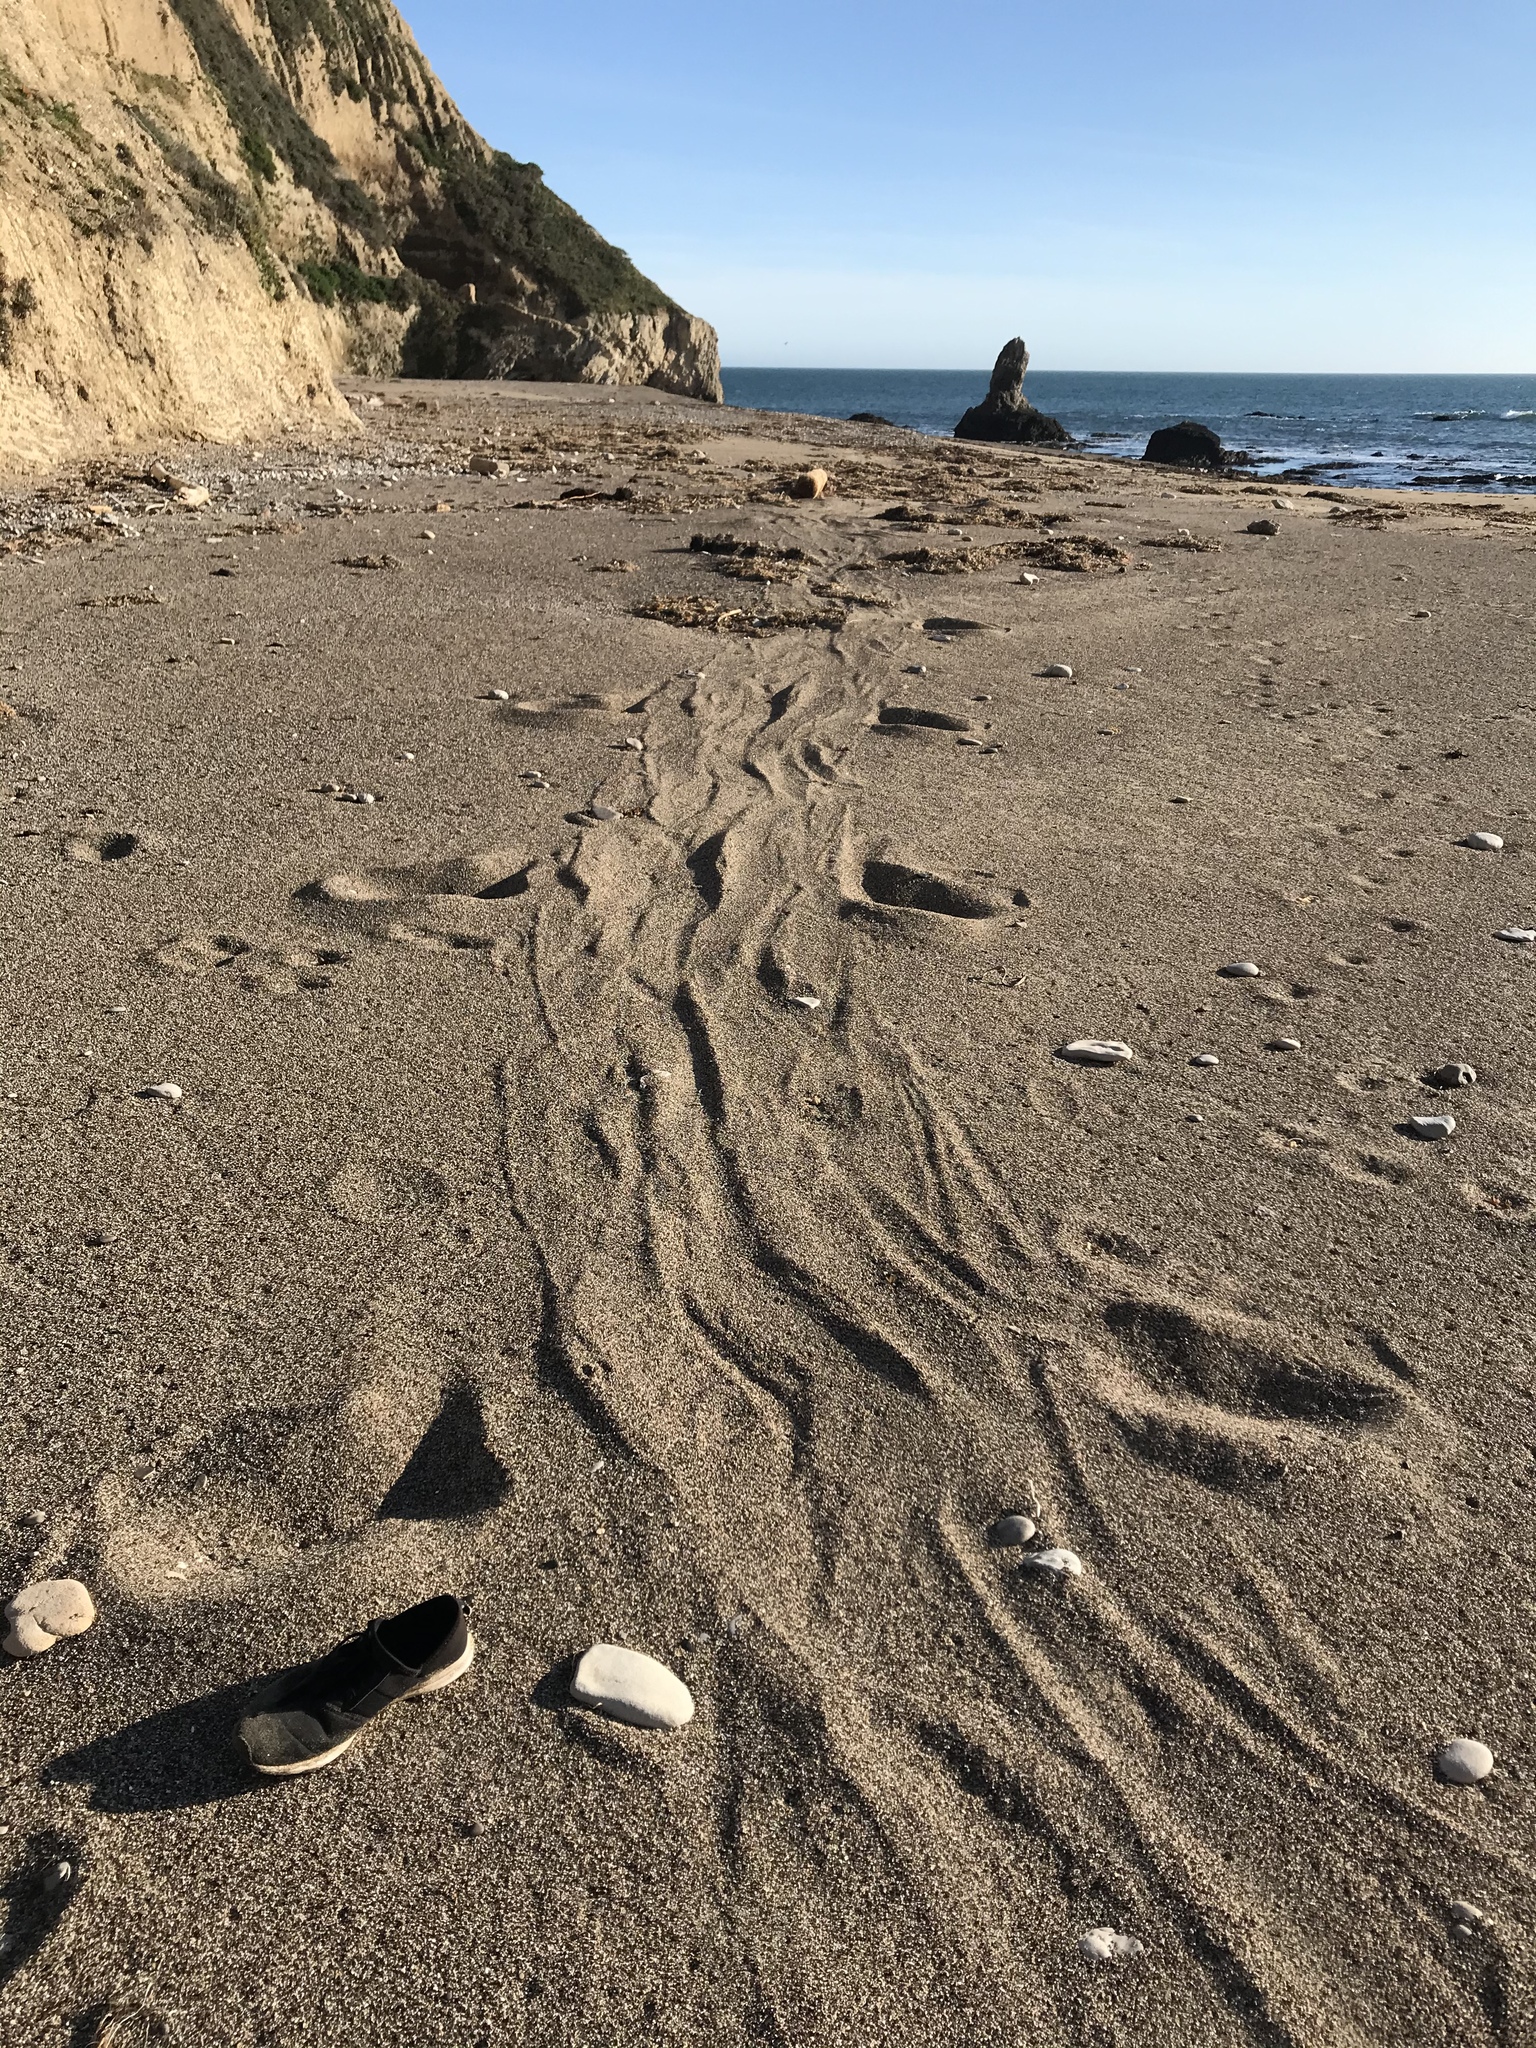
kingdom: Animalia
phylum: Chordata
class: Mammalia
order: Carnivora
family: Phocidae
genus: Mirounga
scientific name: Mirounga angustirostris
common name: Northern elephant seal
